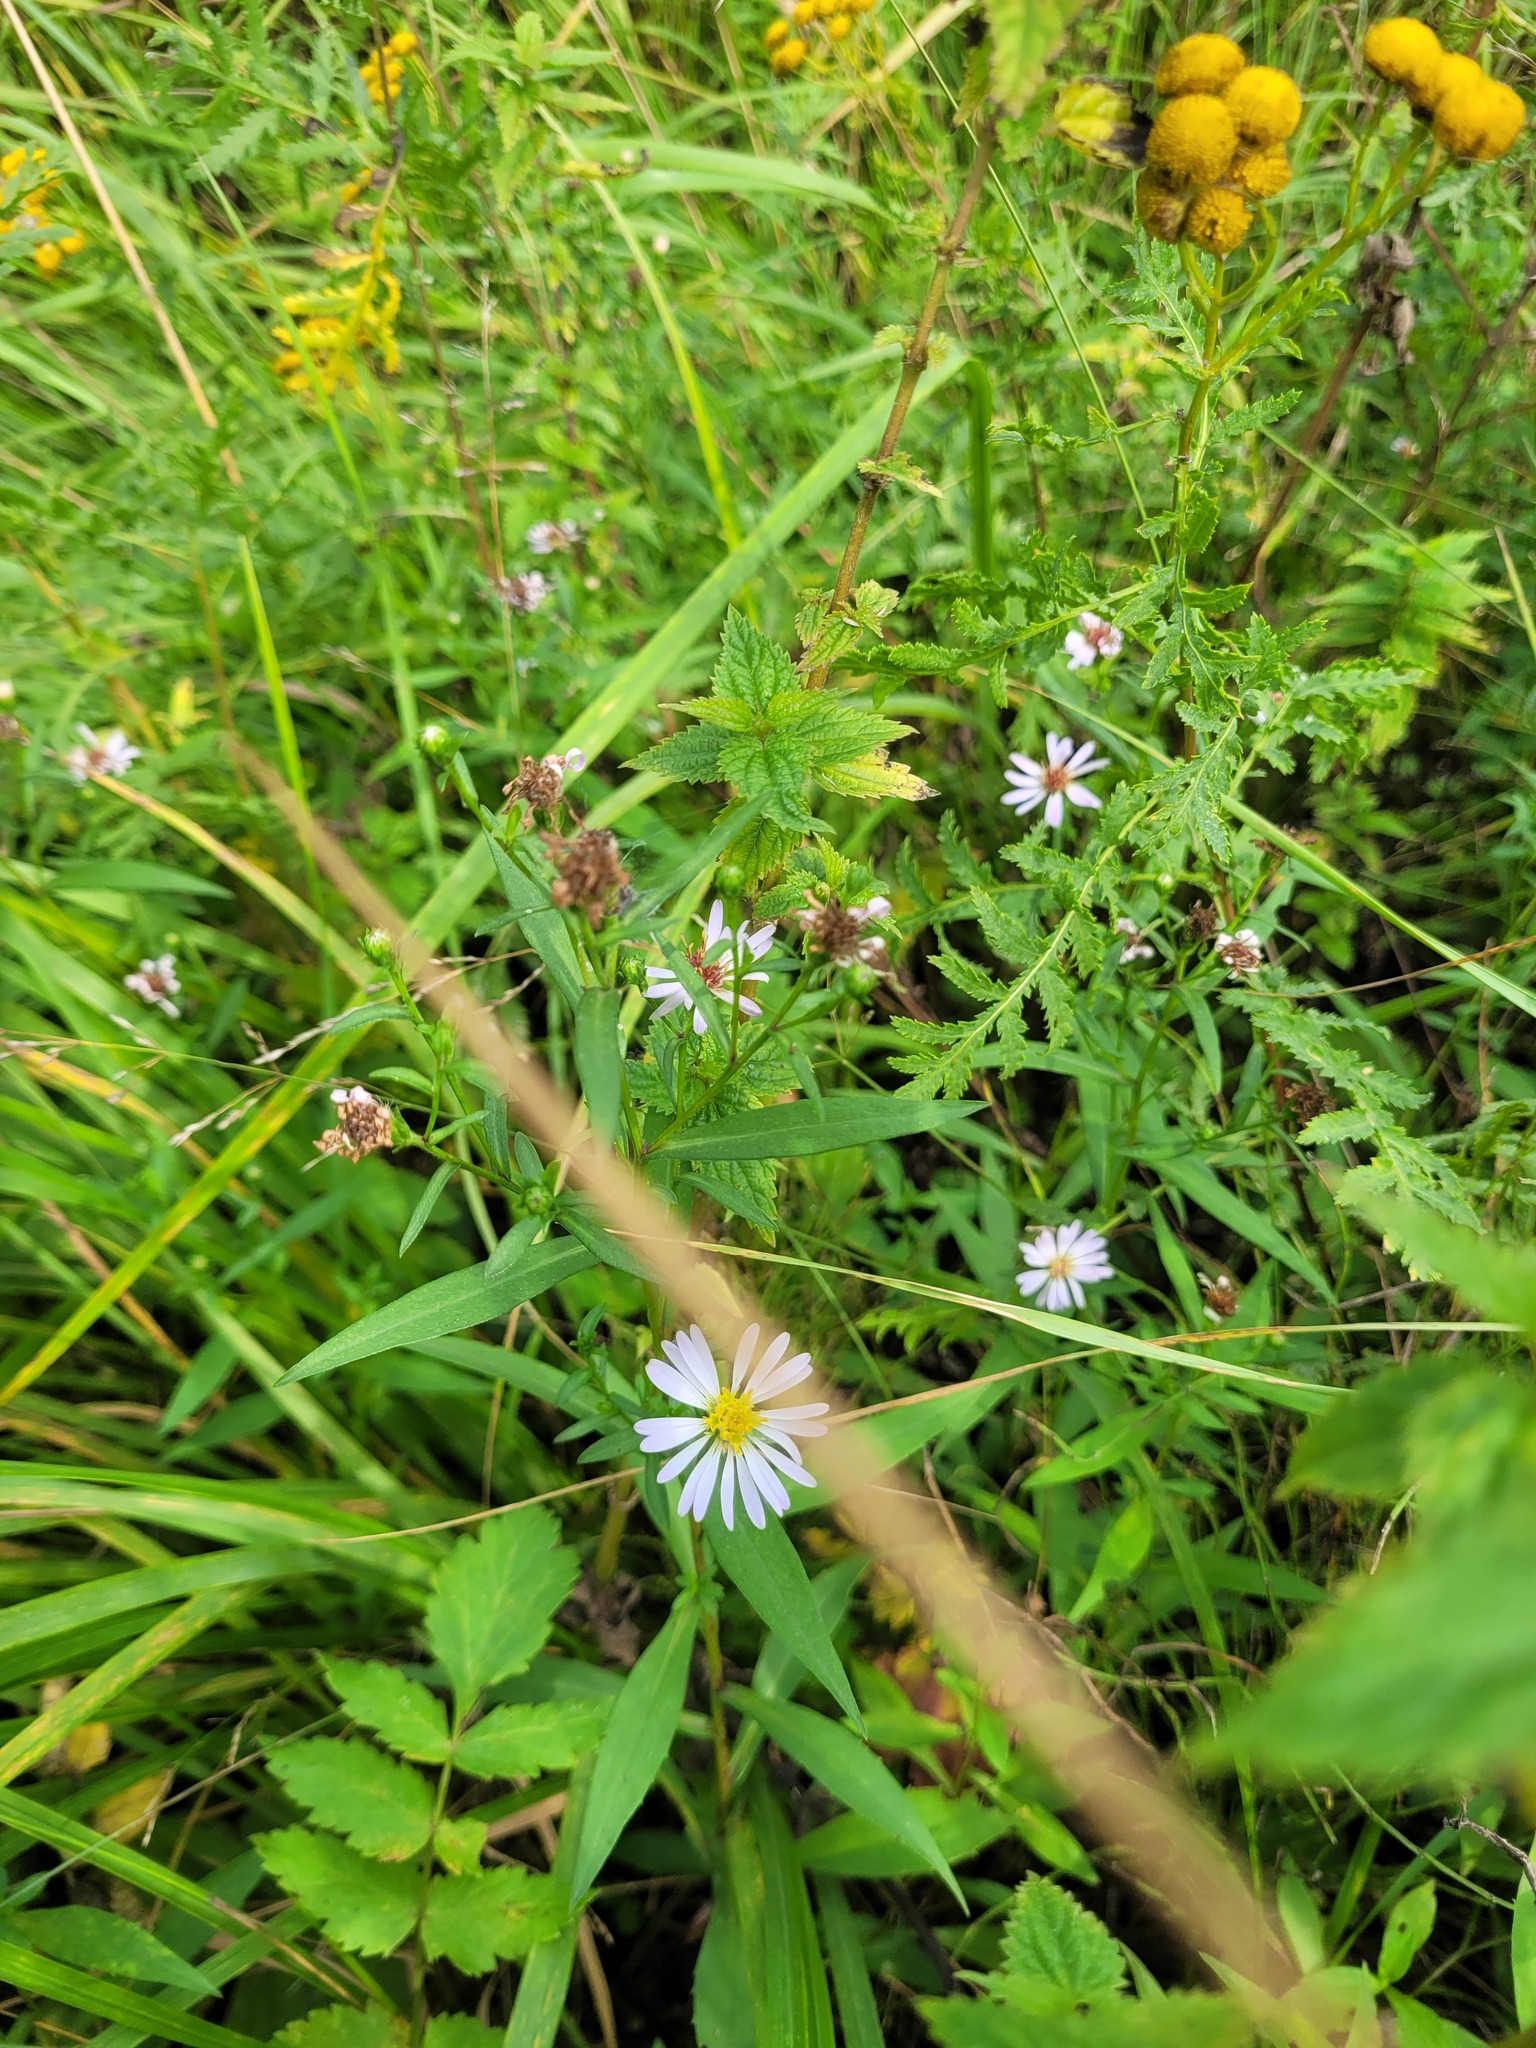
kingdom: Plantae
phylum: Tracheophyta
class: Magnoliopsida
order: Asterales
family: Asteraceae
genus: Symphyotrichum
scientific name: Symphyotrichum salignum
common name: Common michaelmas daisy
